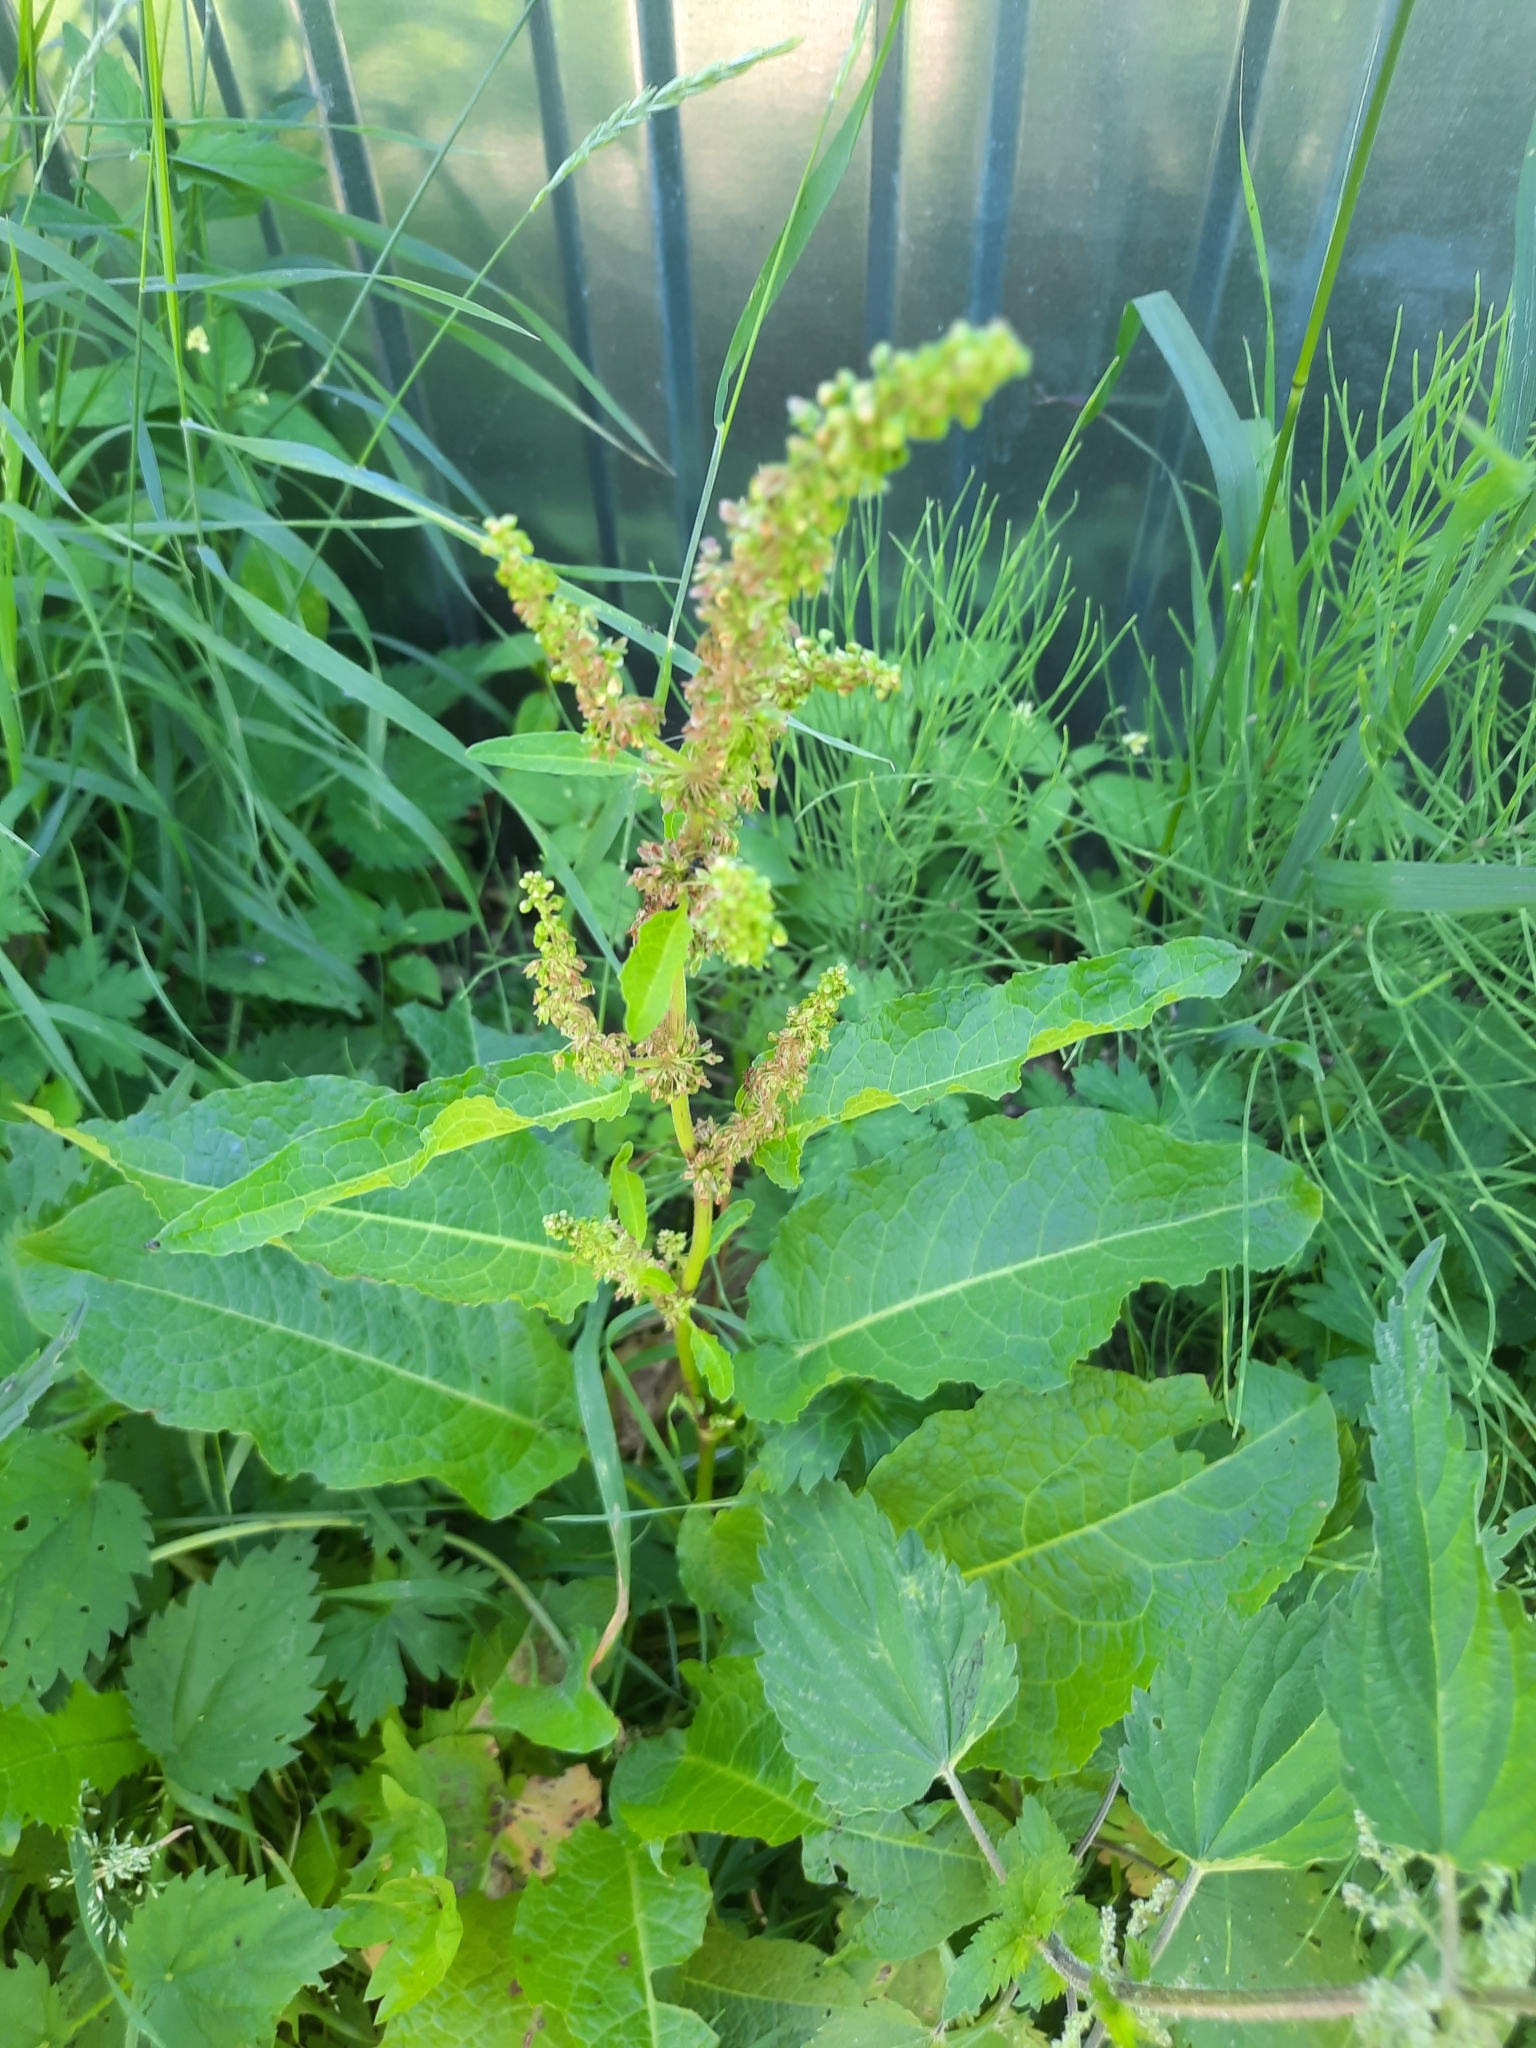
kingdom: Plantae
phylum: Tracheophyta
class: Magnoliopsida
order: Caryophyllales
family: Polygonaceae
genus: Rumex
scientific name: Rumex obtusifolius
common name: Bitter dock
